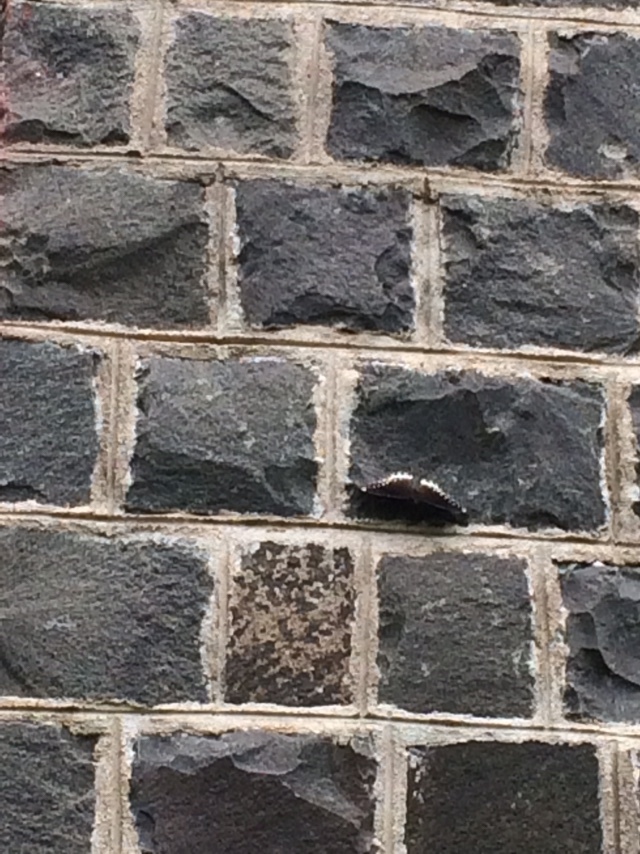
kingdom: Animalia
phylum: Arthropoda
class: Insecta
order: Lepidoptera
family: Nymphalidae
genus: Hypolimnas
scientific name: Hypolimnas bolina
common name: Great eggfly
